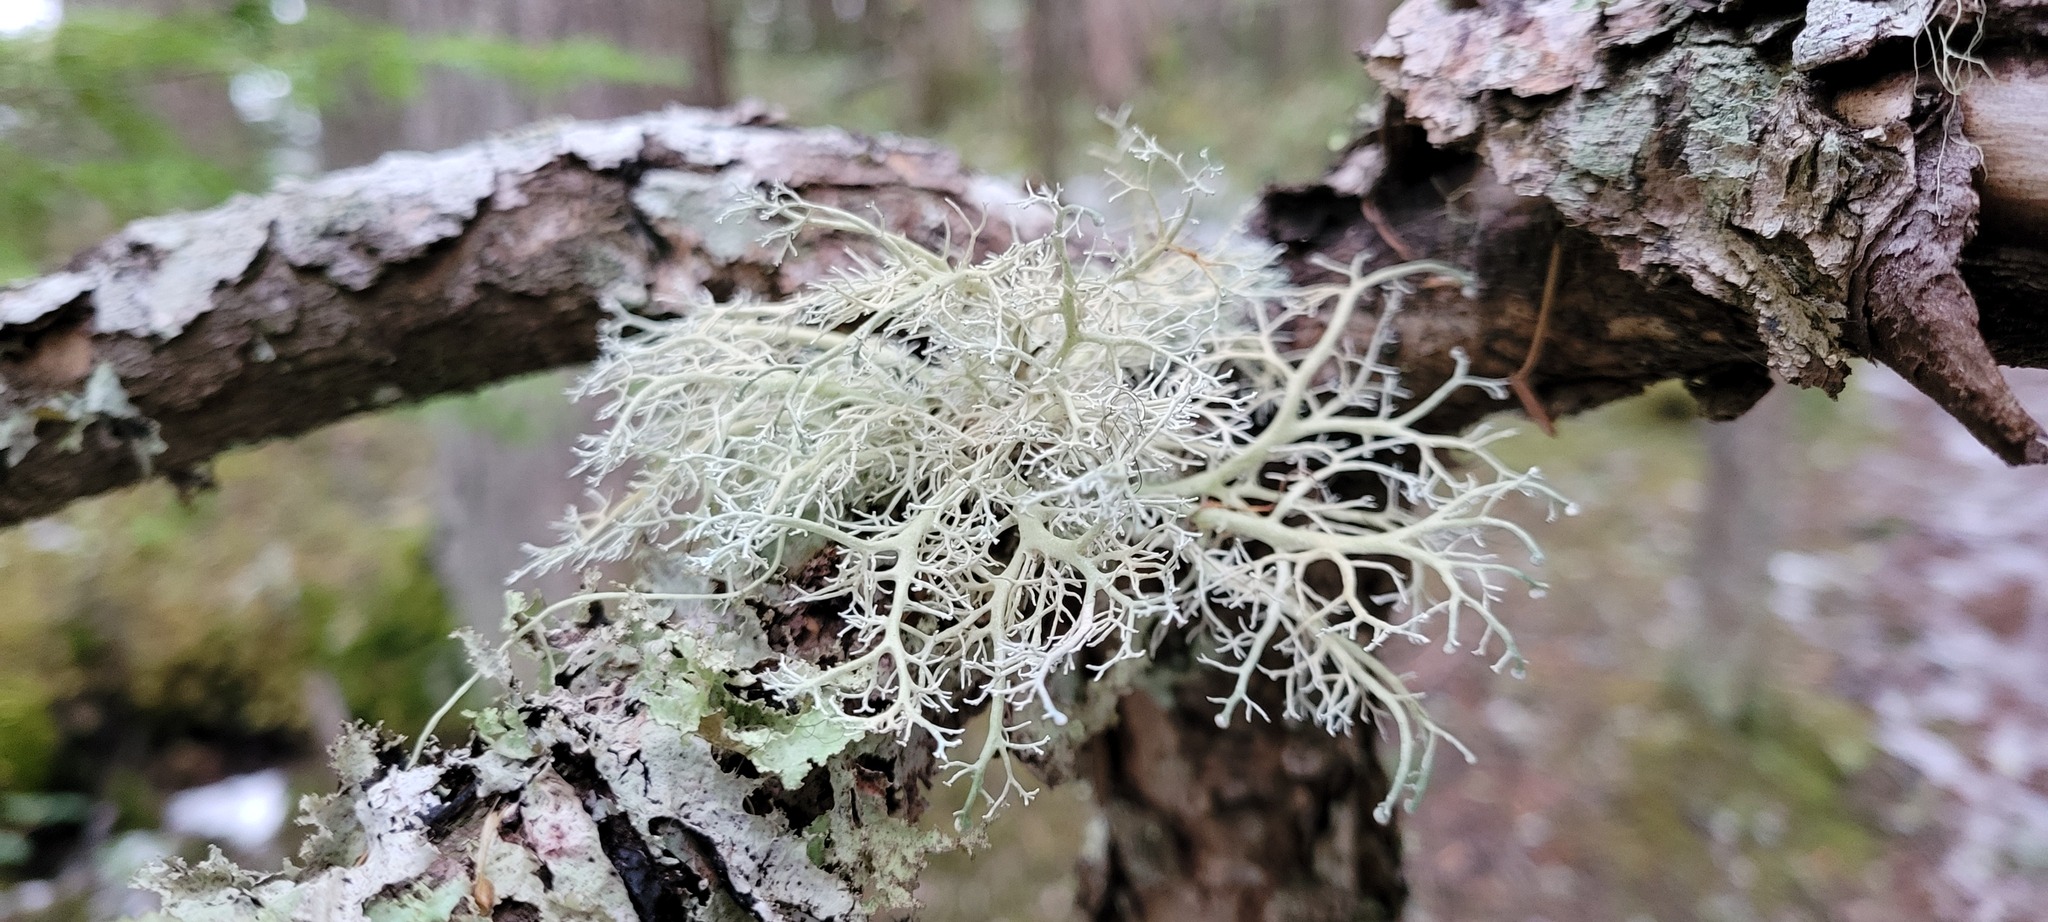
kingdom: Fungi
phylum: Ascomycota
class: Lecanoromycetes
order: Lecanorales
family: Sphaerophoraceae
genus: Sphaerophorus
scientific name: Sphaerophorus venerabilis
